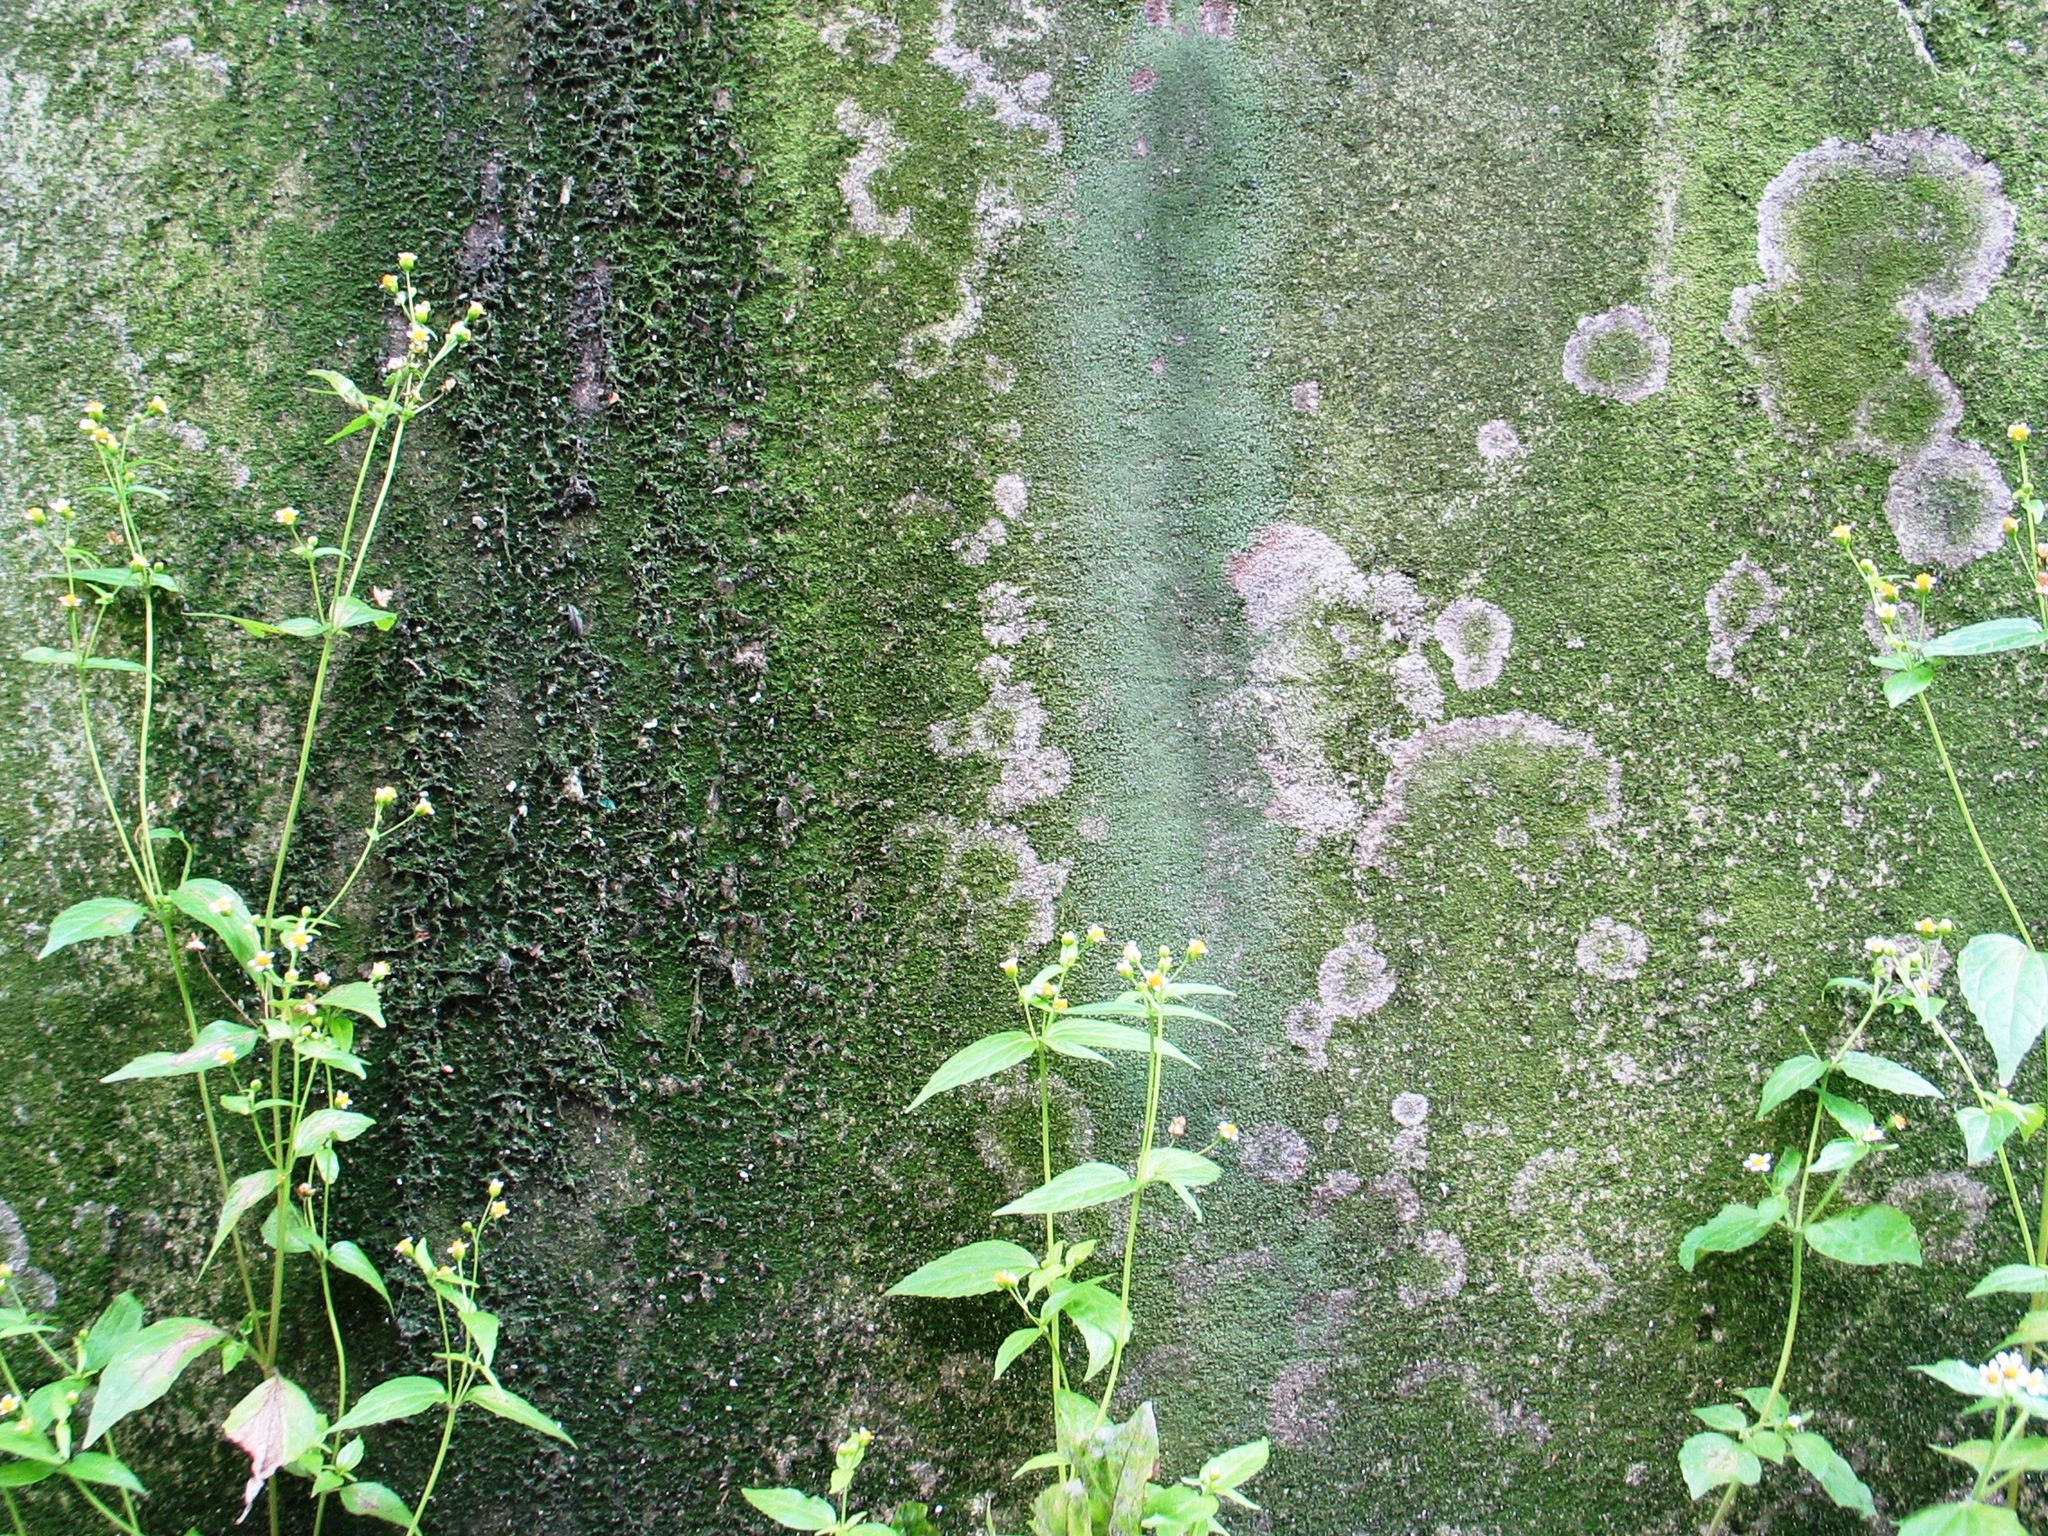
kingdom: Plantae
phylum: Tracheophyta
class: Magnoliopsida
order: Asterales
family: Asteraceae
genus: Galinsoga
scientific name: Galinsoga parviflora
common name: Gallant soldier
